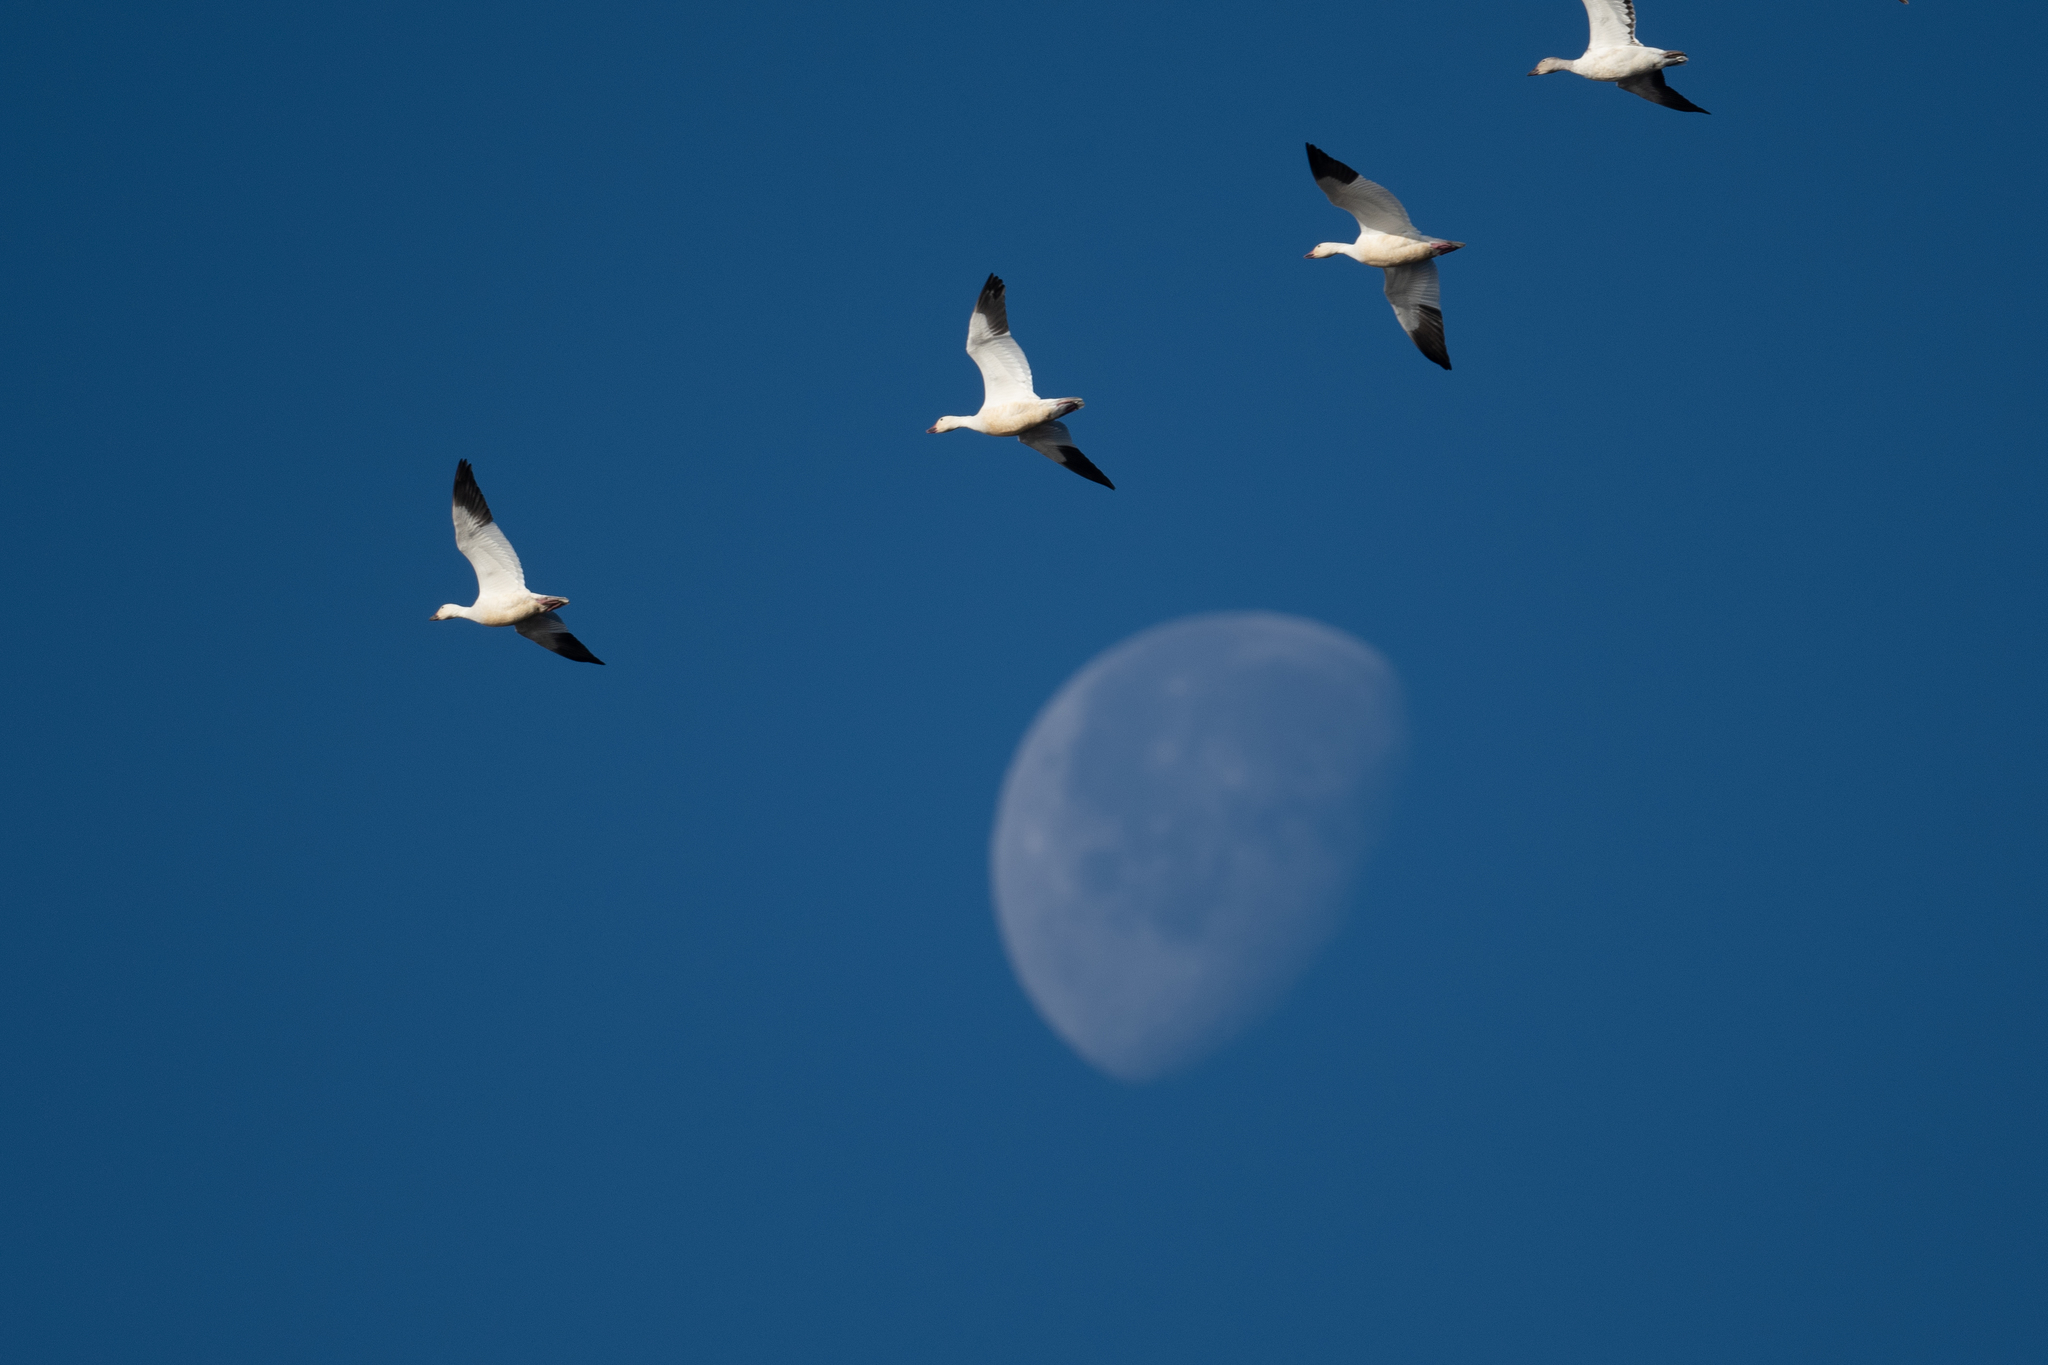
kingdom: Animalia
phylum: Chordata
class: Aves
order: Anseriformes
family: Anatidae
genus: Anser
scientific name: Anser caerulescens
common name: Snow goose
